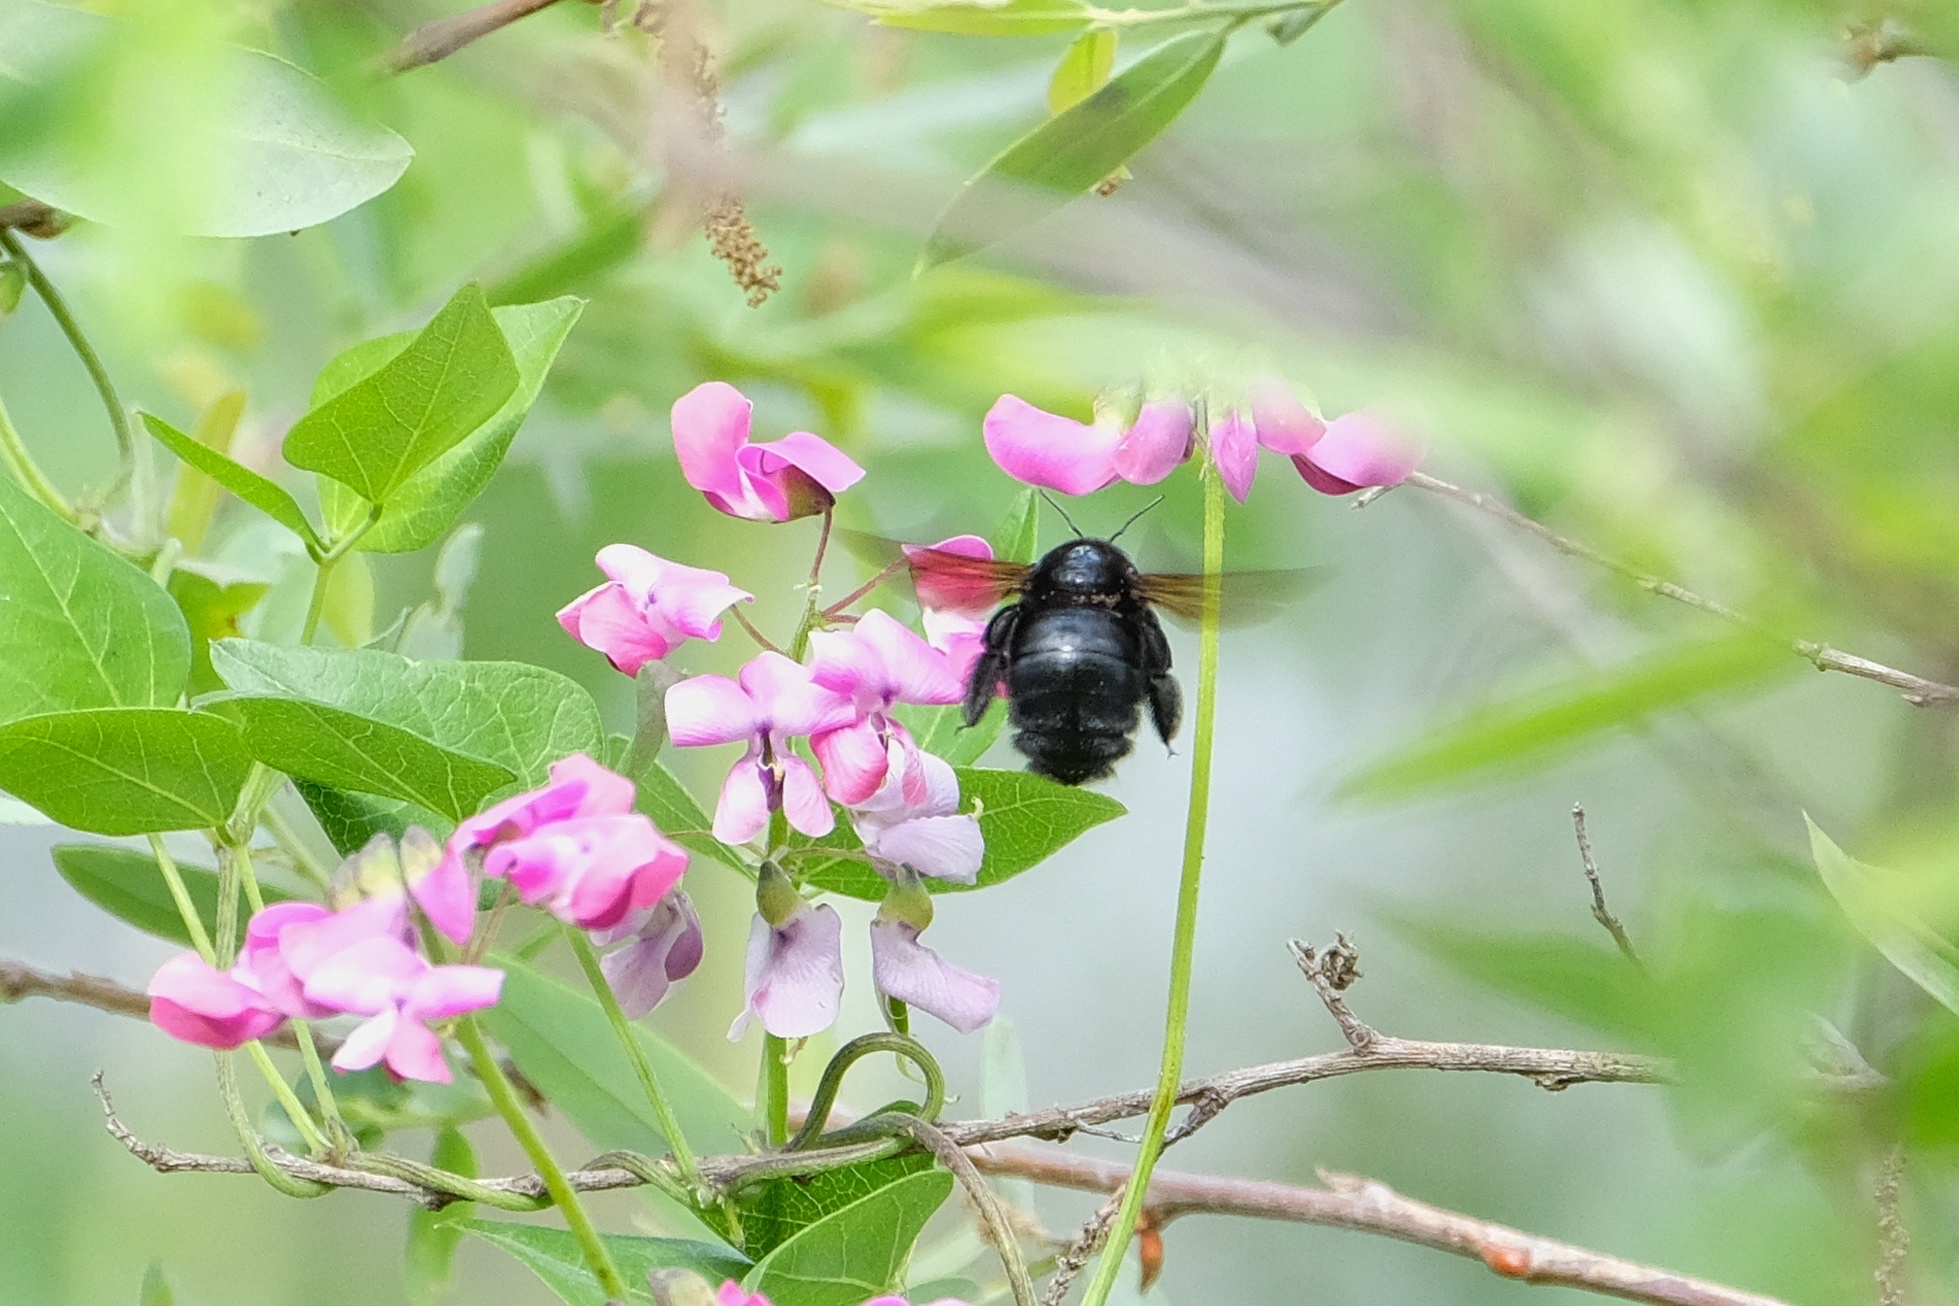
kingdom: Animalia
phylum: Arthropoda
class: Insecta
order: Hymenoptera
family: Apidae
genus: Xylocopa
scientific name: Xylocopa sonorina
